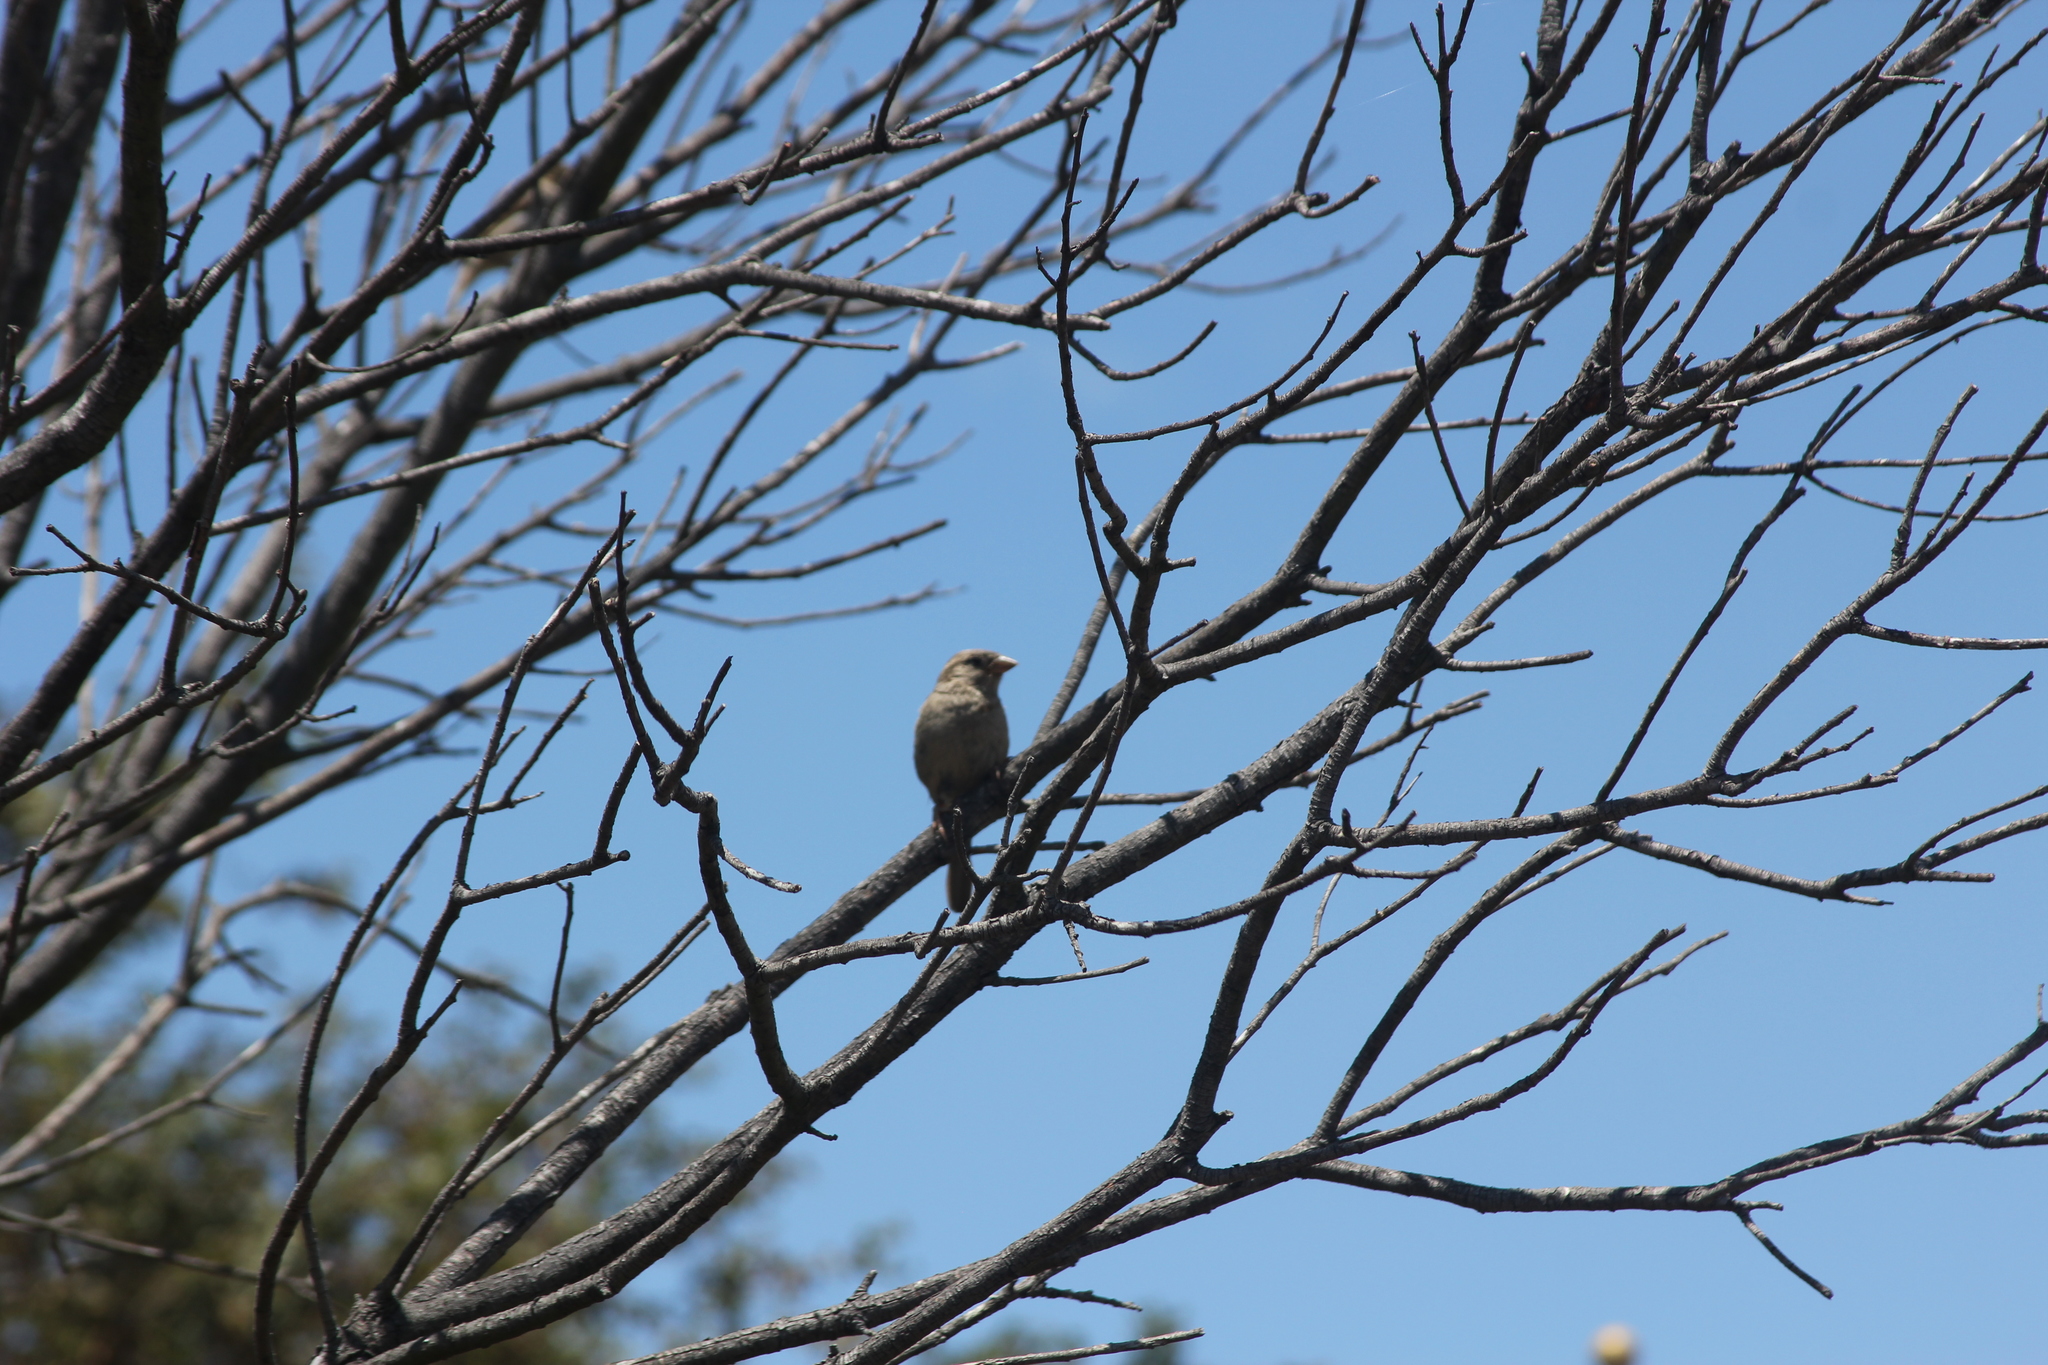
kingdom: Animalia
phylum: Chordata
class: Aves
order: Passeriformes
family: Passeridae
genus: Passer
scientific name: Passer domesticus
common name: House sparrow
